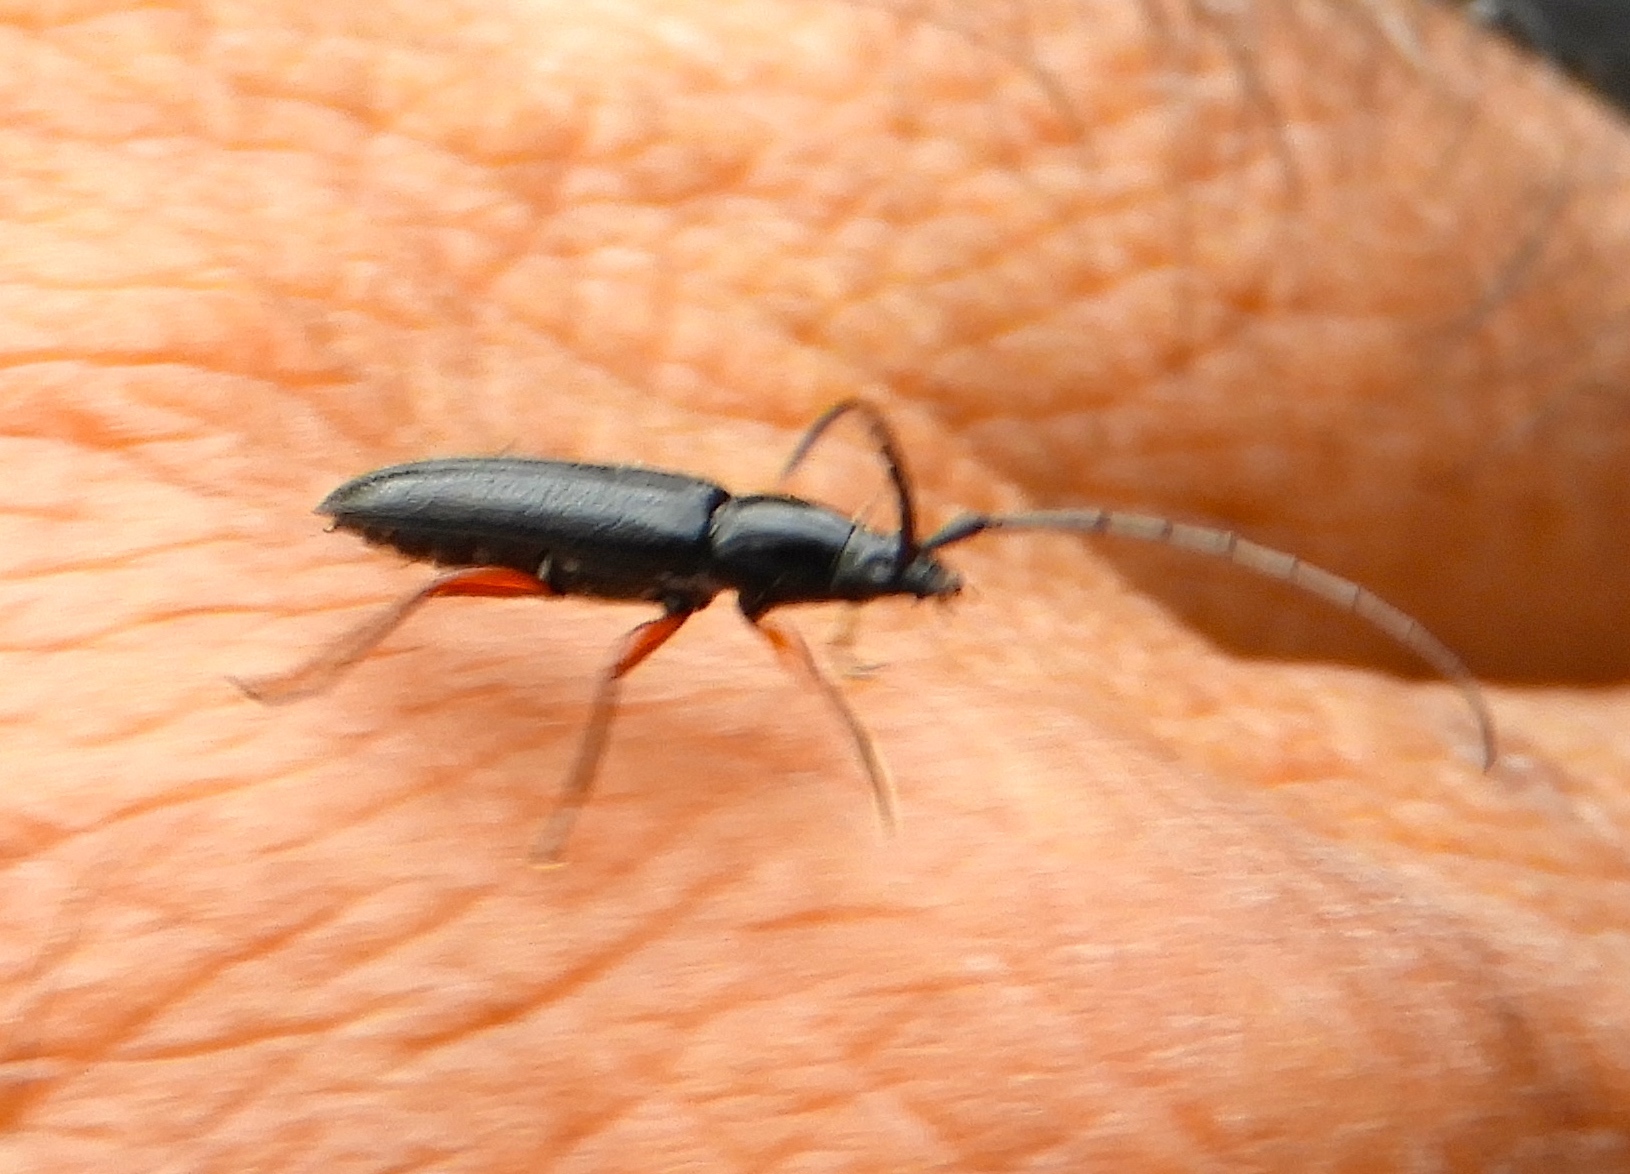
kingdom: Animalia
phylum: Arthropoda
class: Insecta
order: Coleoptera
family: Cerambycidae
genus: Stenosphenus
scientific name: Stenosphenus
